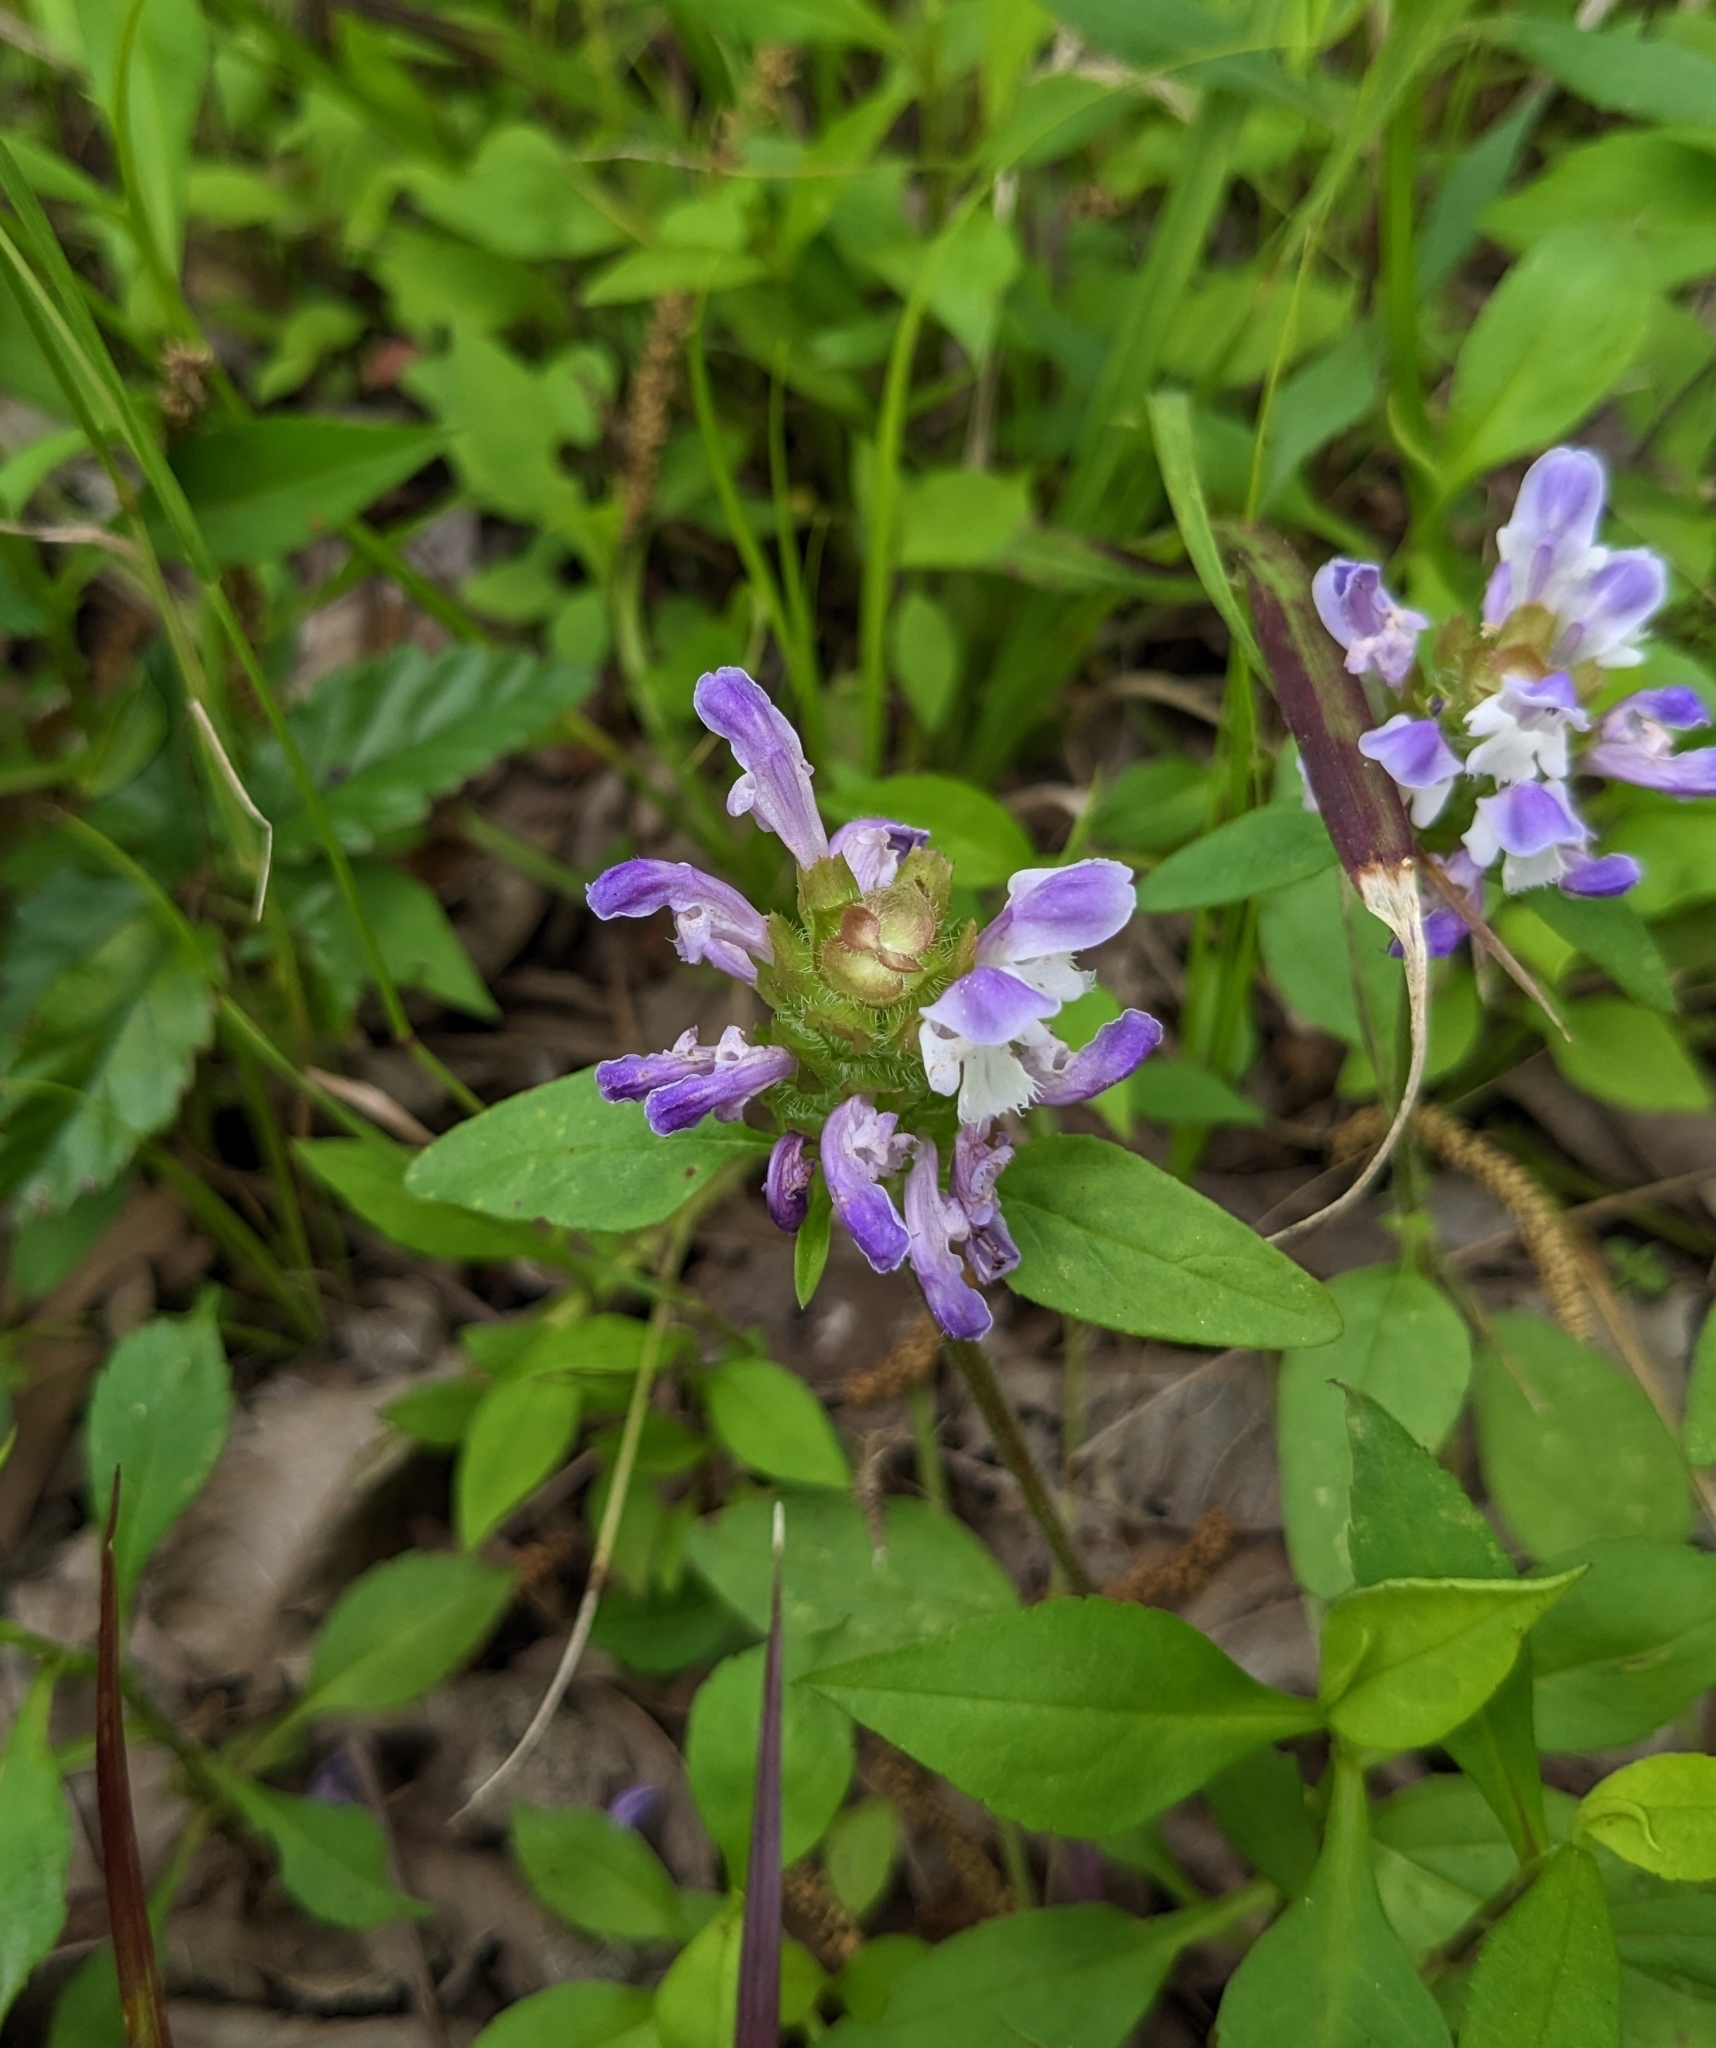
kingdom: Plantae
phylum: Tracheophyta
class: Magnoliopsida
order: Lamiales
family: Lamiaceae
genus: Prunella
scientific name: Prunella vulgaris
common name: Heal-all
